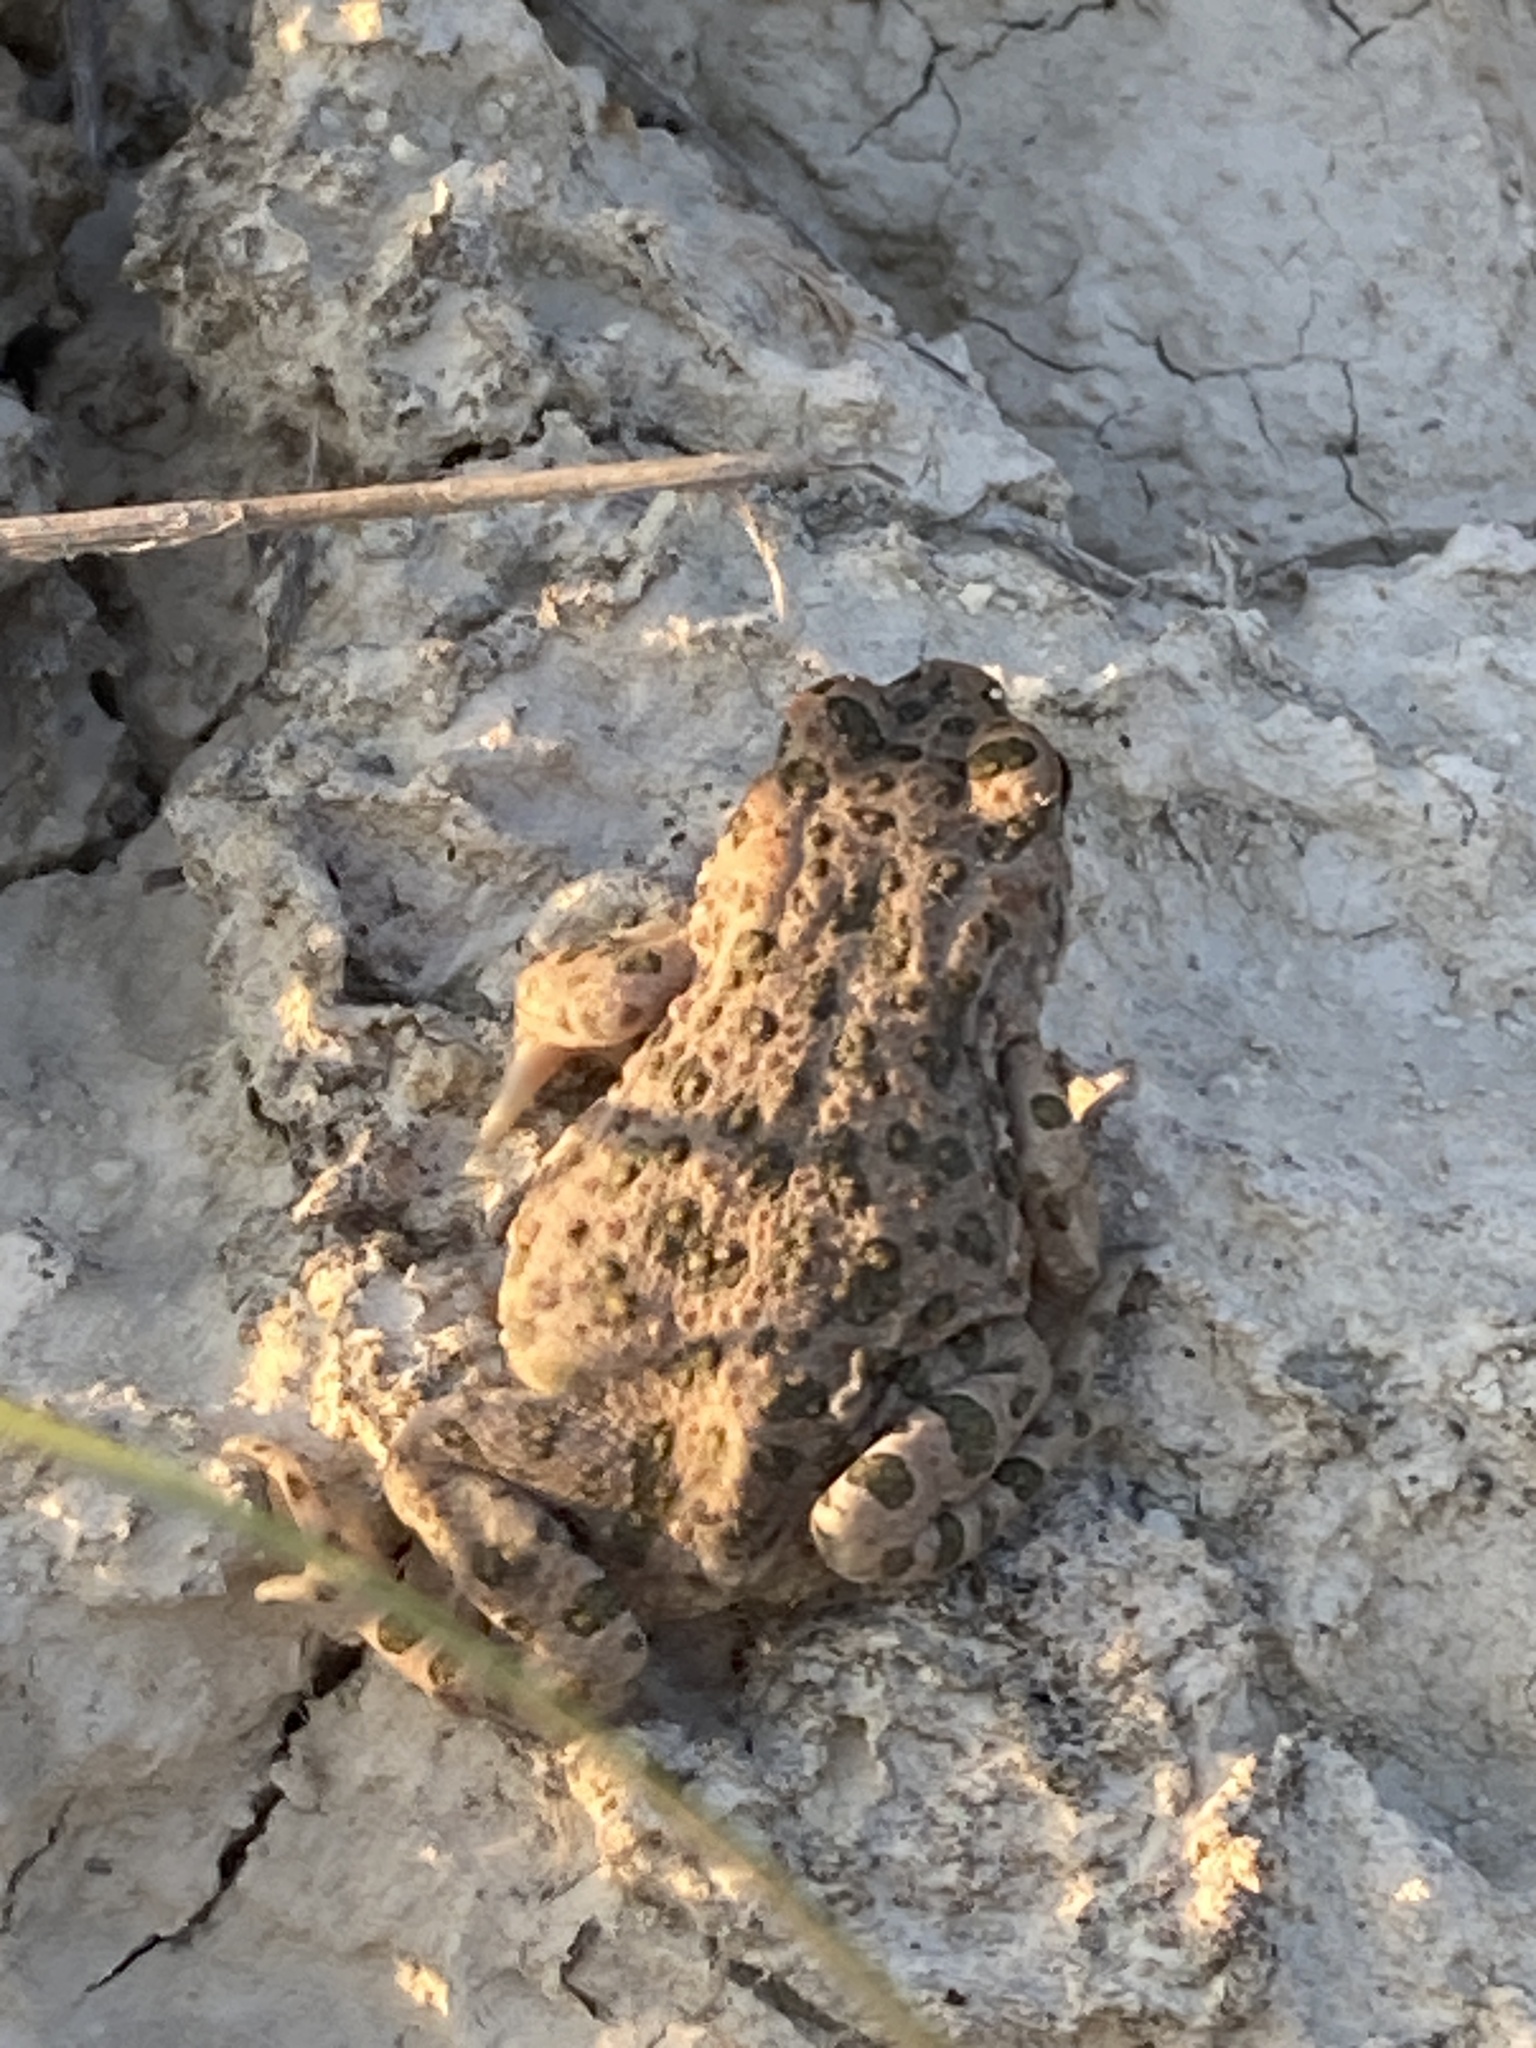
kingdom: Animalia
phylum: Chordata
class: Amphibia
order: Anura
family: Bufonidae
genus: Bufotes
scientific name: Bufotes viridis
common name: European green toad
